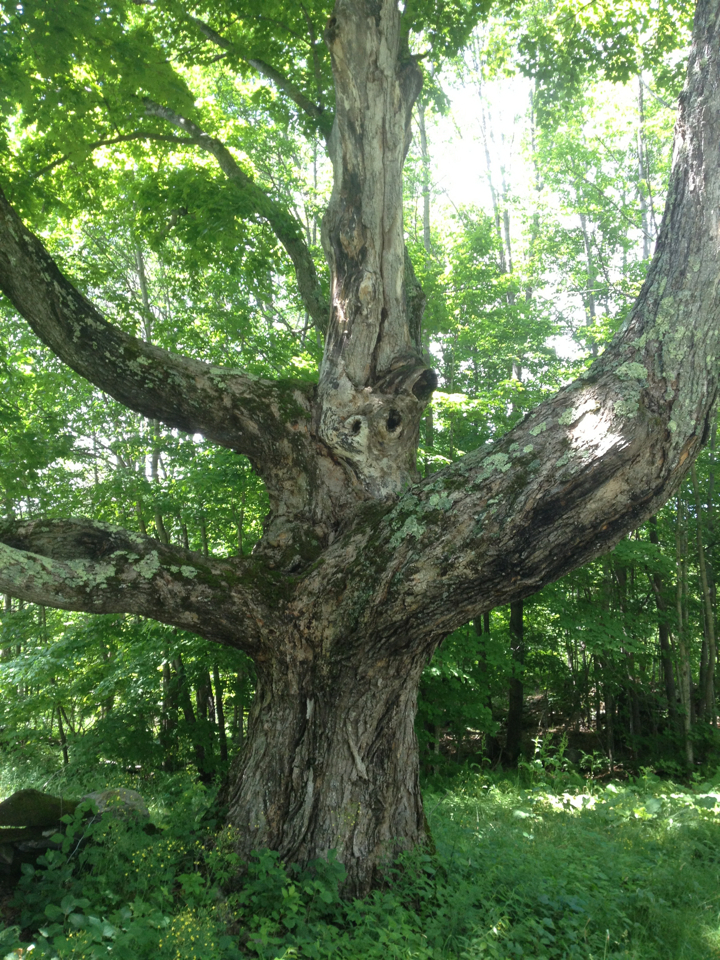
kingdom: Plantae
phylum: Tracheophyta
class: Magnoliopsida
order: Sapindales
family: Sapindaceae
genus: Acer
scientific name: Acer saccharum
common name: Sugar maple
